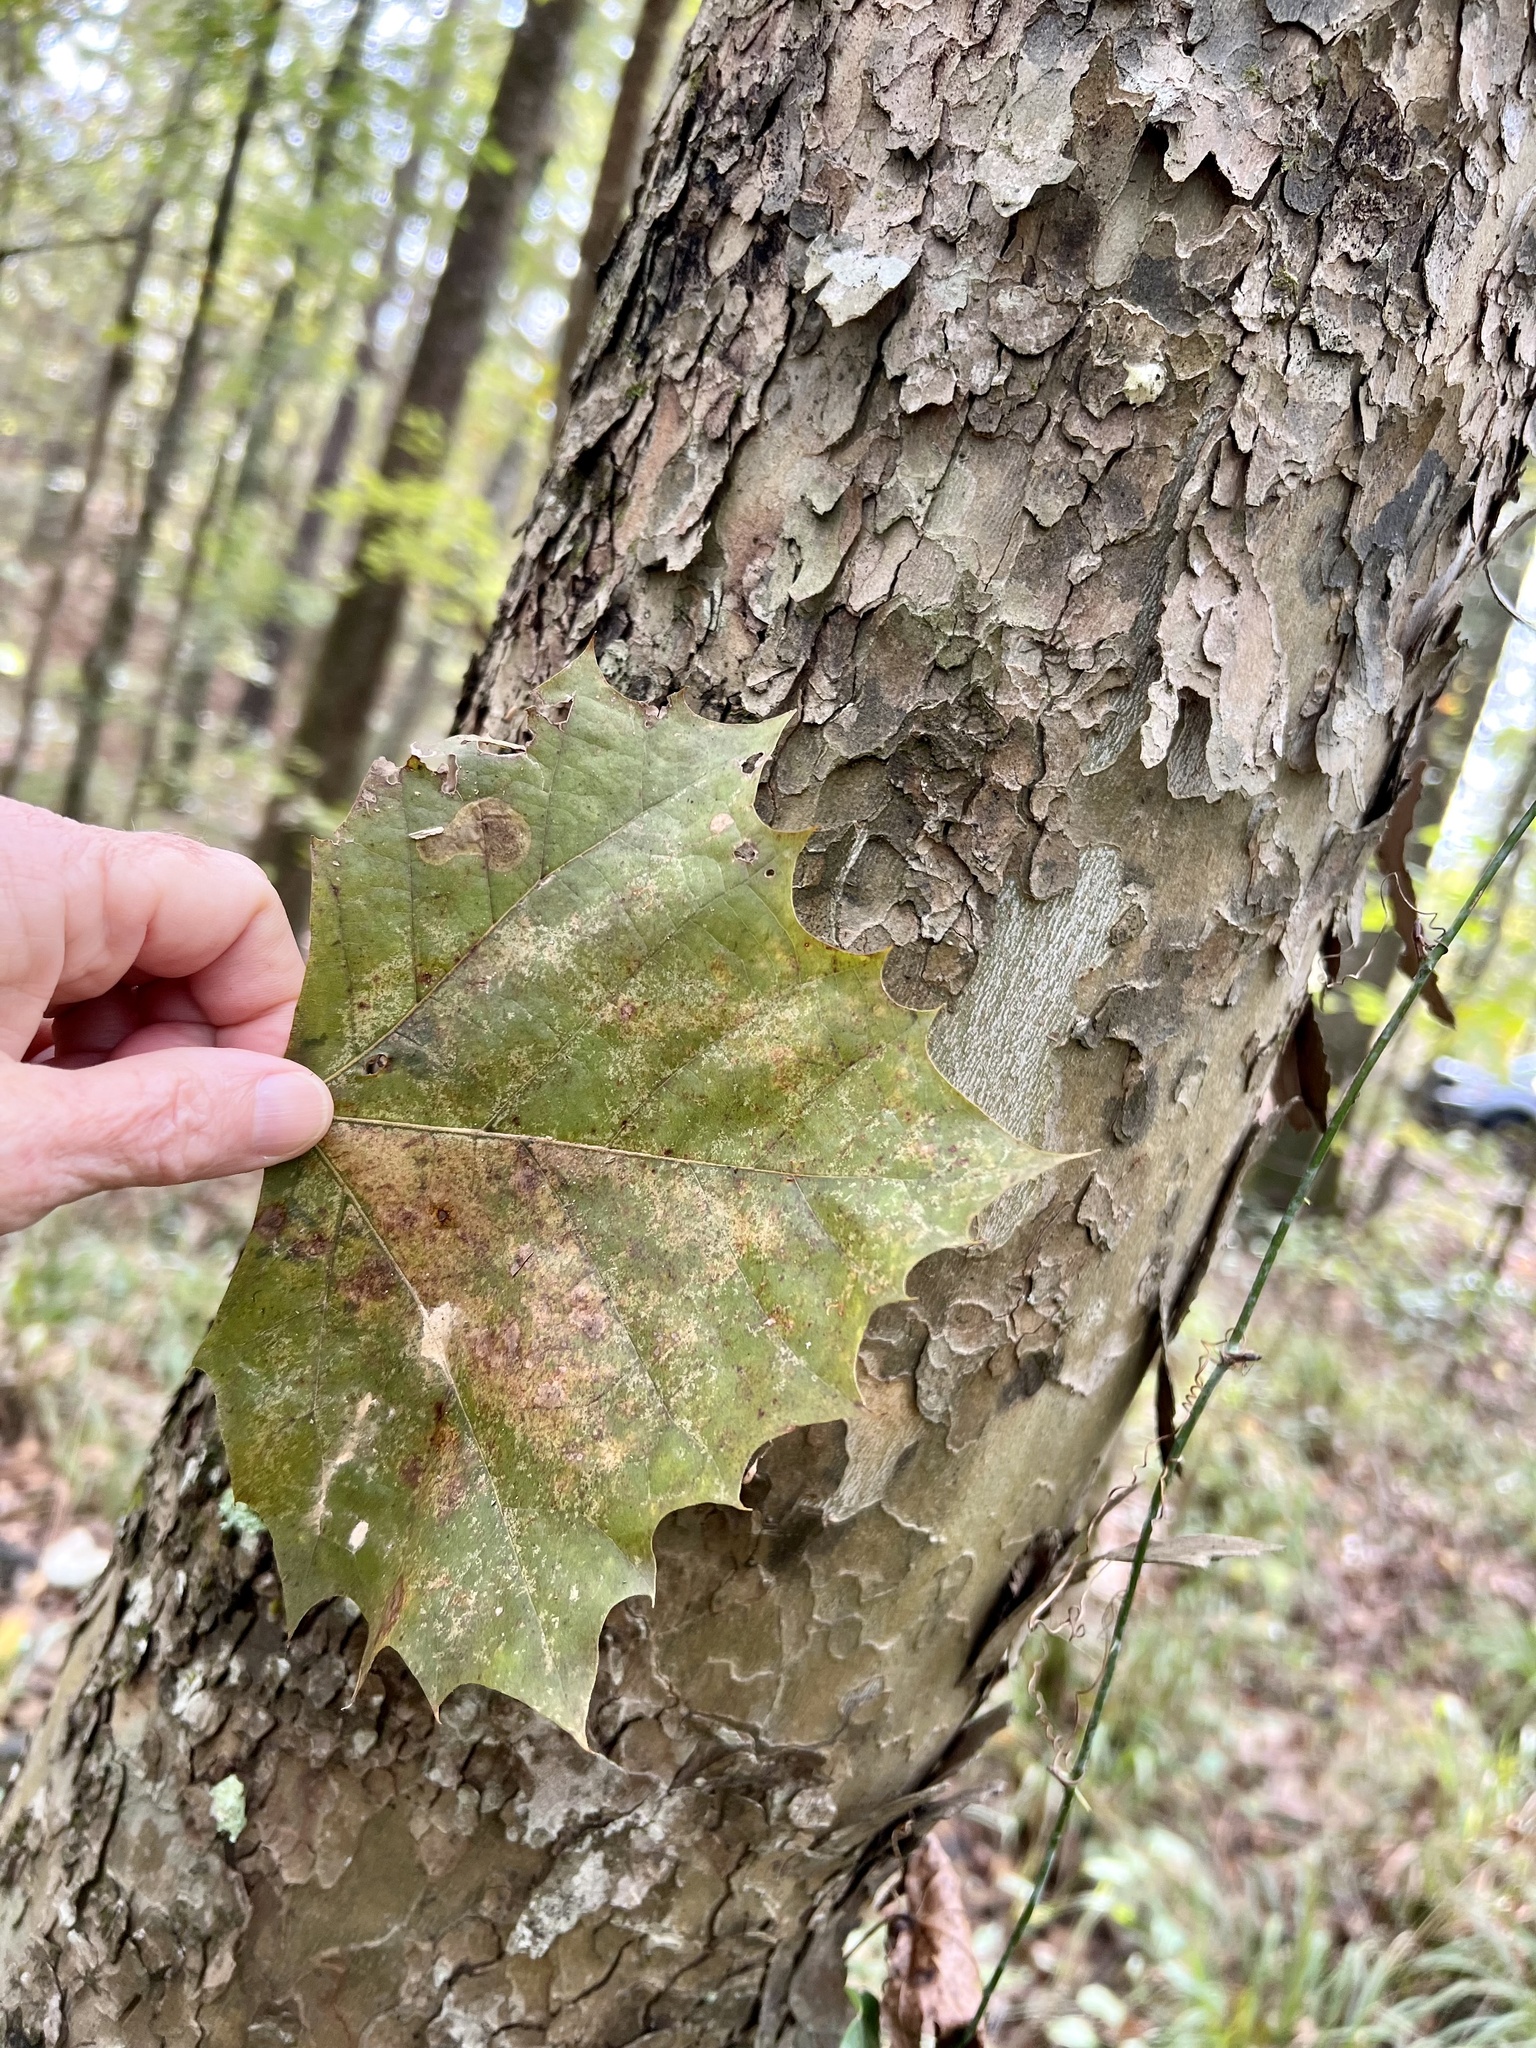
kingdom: Plantae
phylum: Tracheophyta
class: Magnoliopsida
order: Proteales
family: Platanaceae
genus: Platanus
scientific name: Platanus occidentalis
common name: American sycamore
